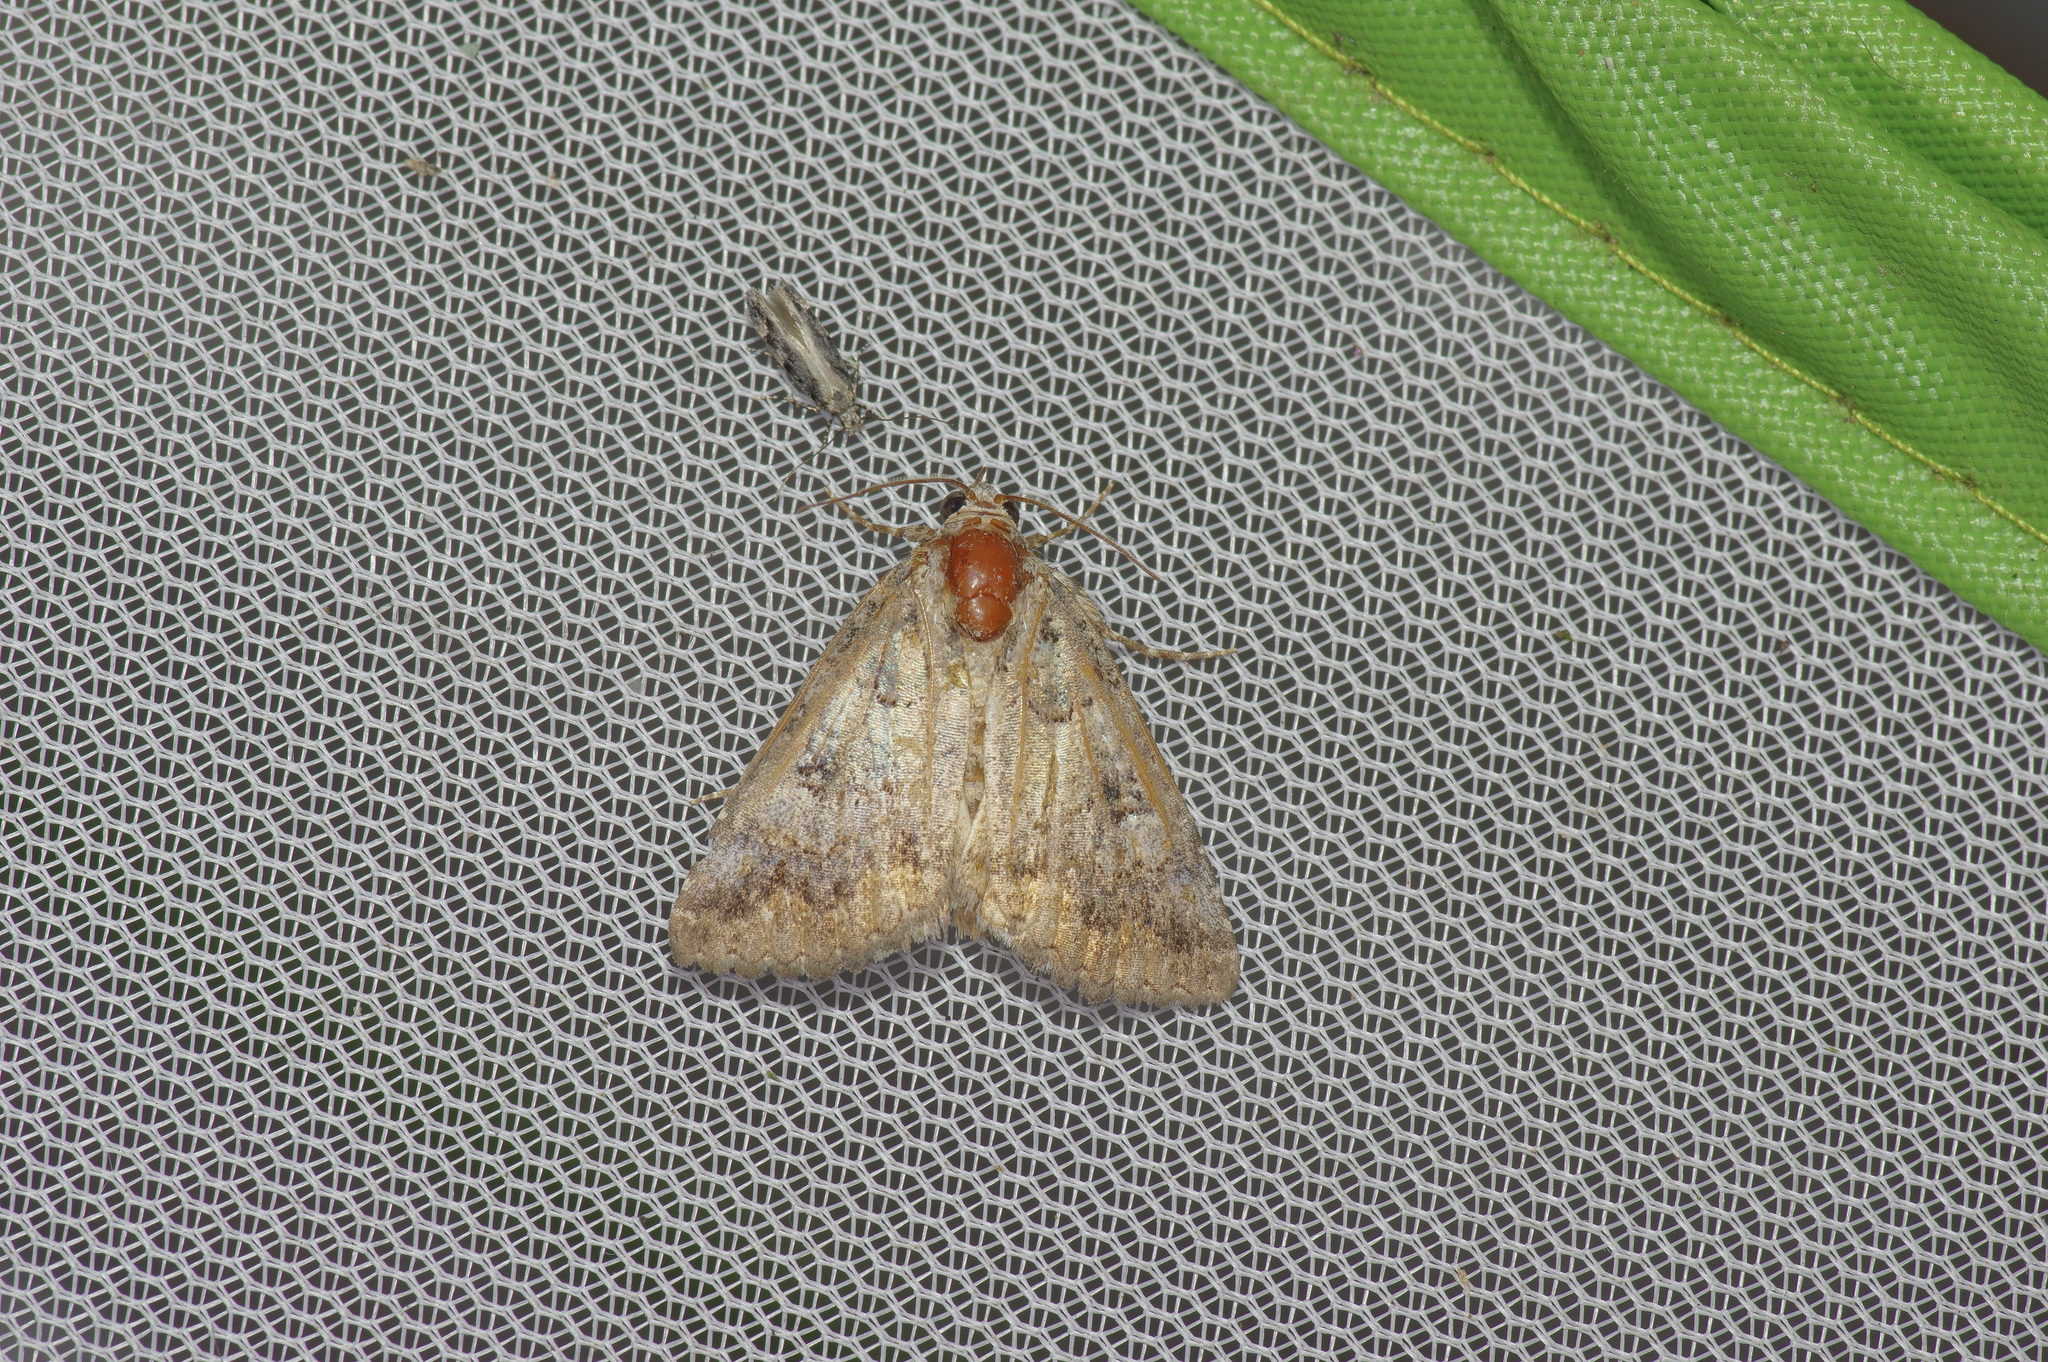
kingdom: Animalia
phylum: Arthropoda
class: Insecta
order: Lepidoptera
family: Erebidae
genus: Eubolina
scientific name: Eubolina impartialis
